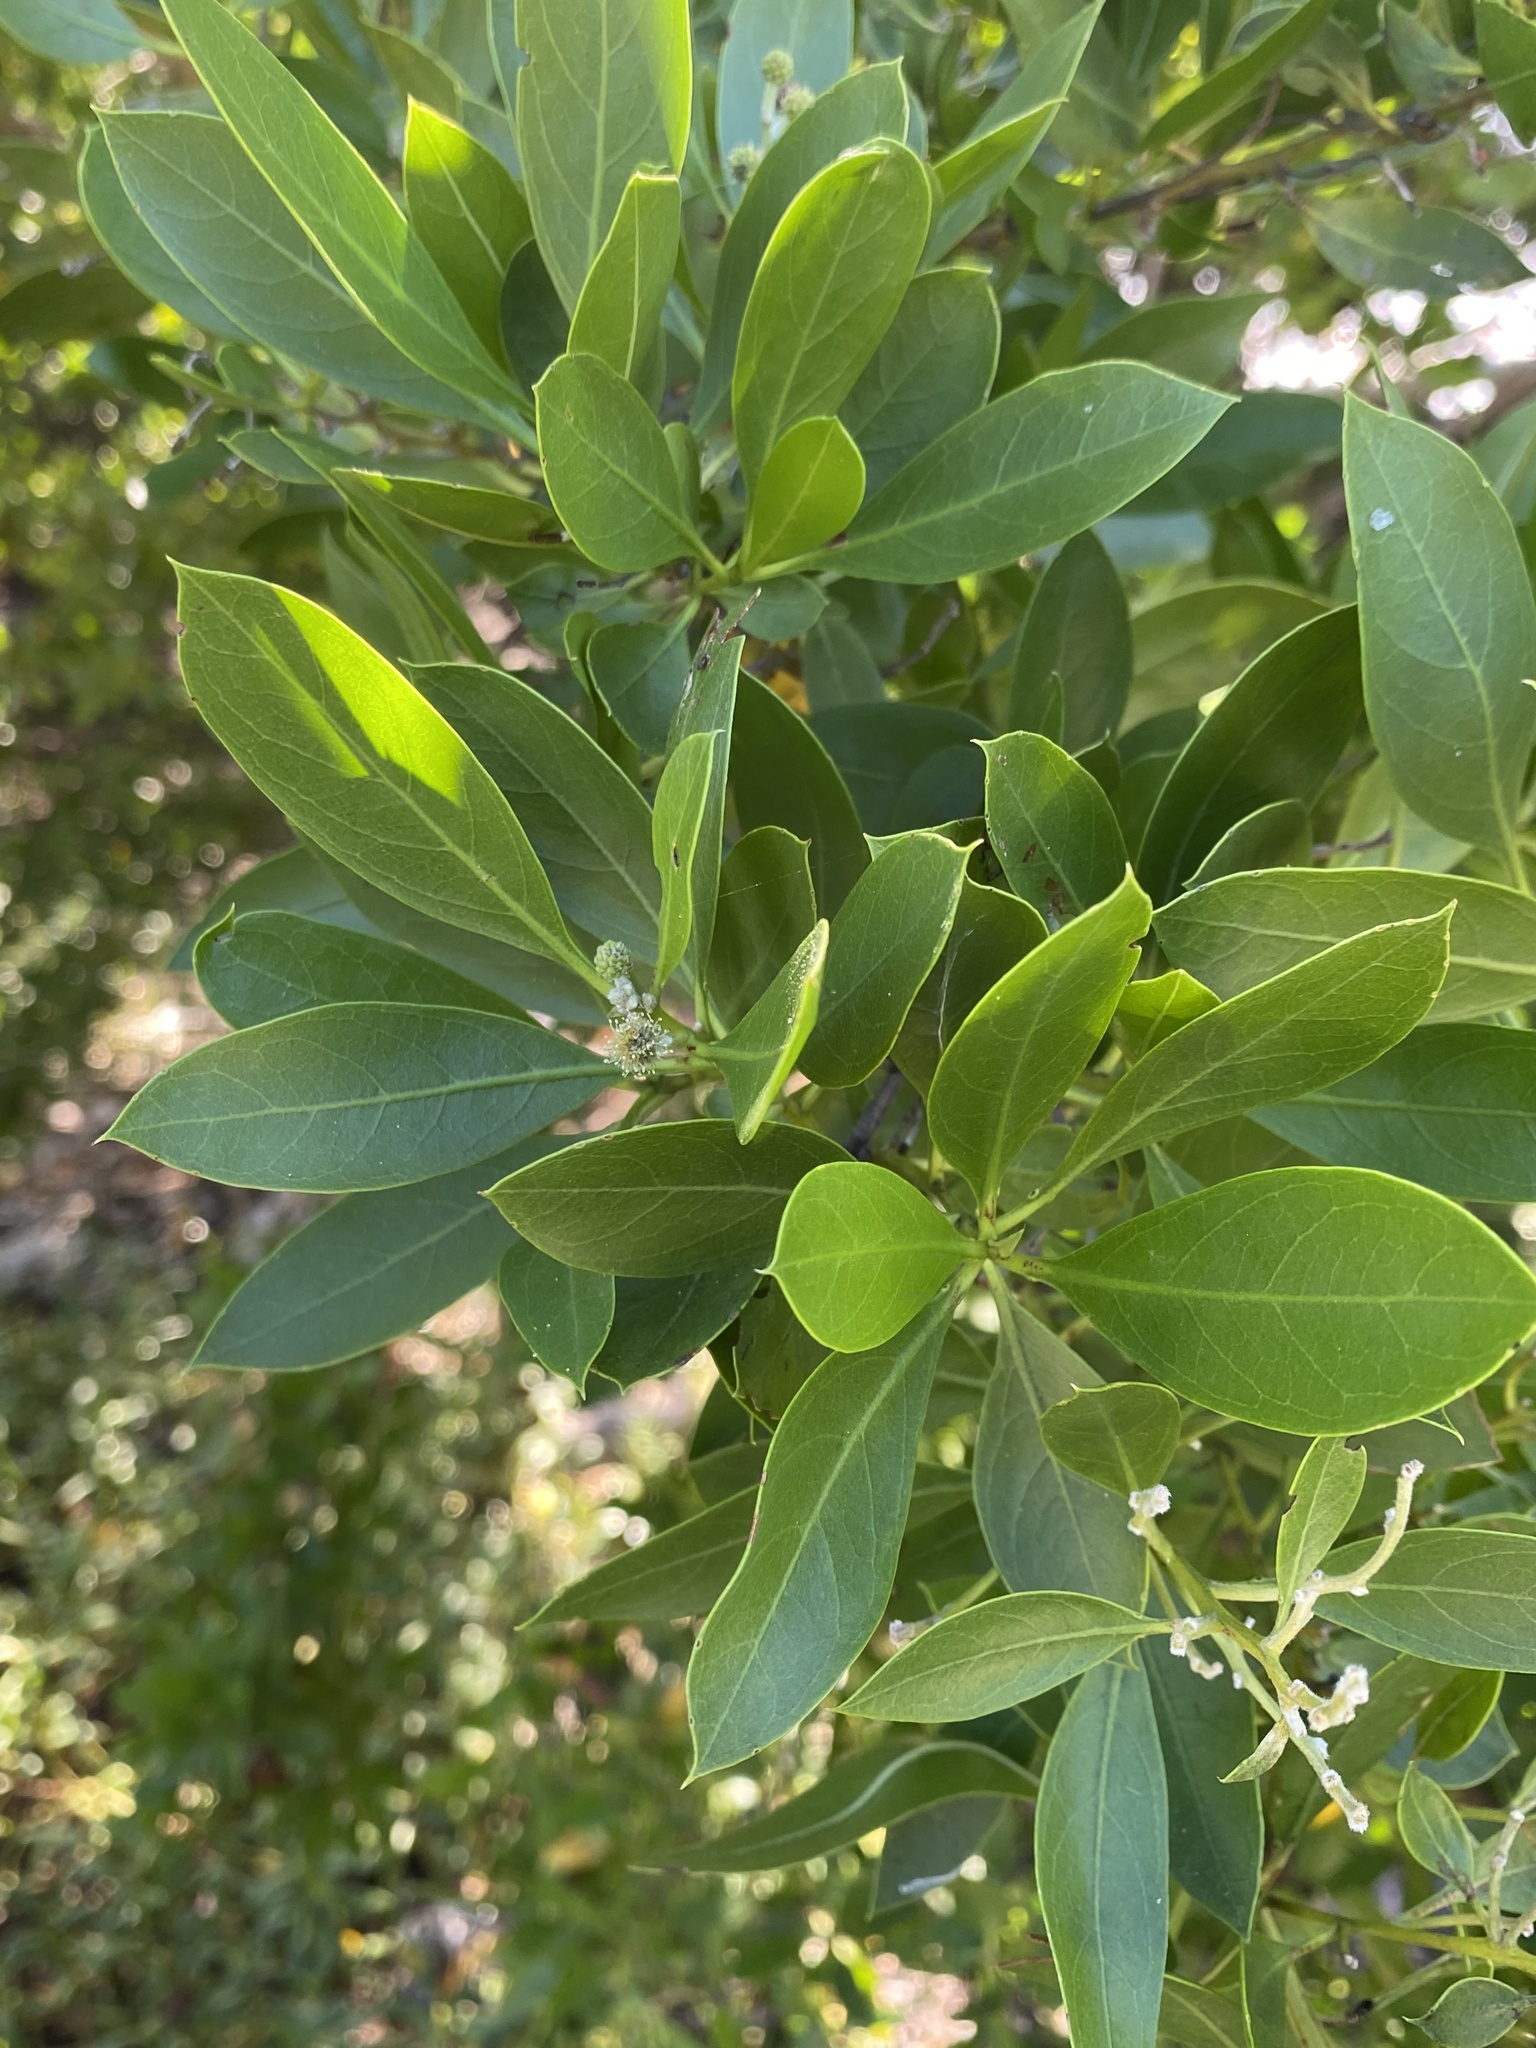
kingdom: Plantae
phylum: Tracheophyta
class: Magnoliopsida
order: Myrtales
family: Combretaceae
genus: Conocarpus
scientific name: Conocarpus erectus
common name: Button mangrove
